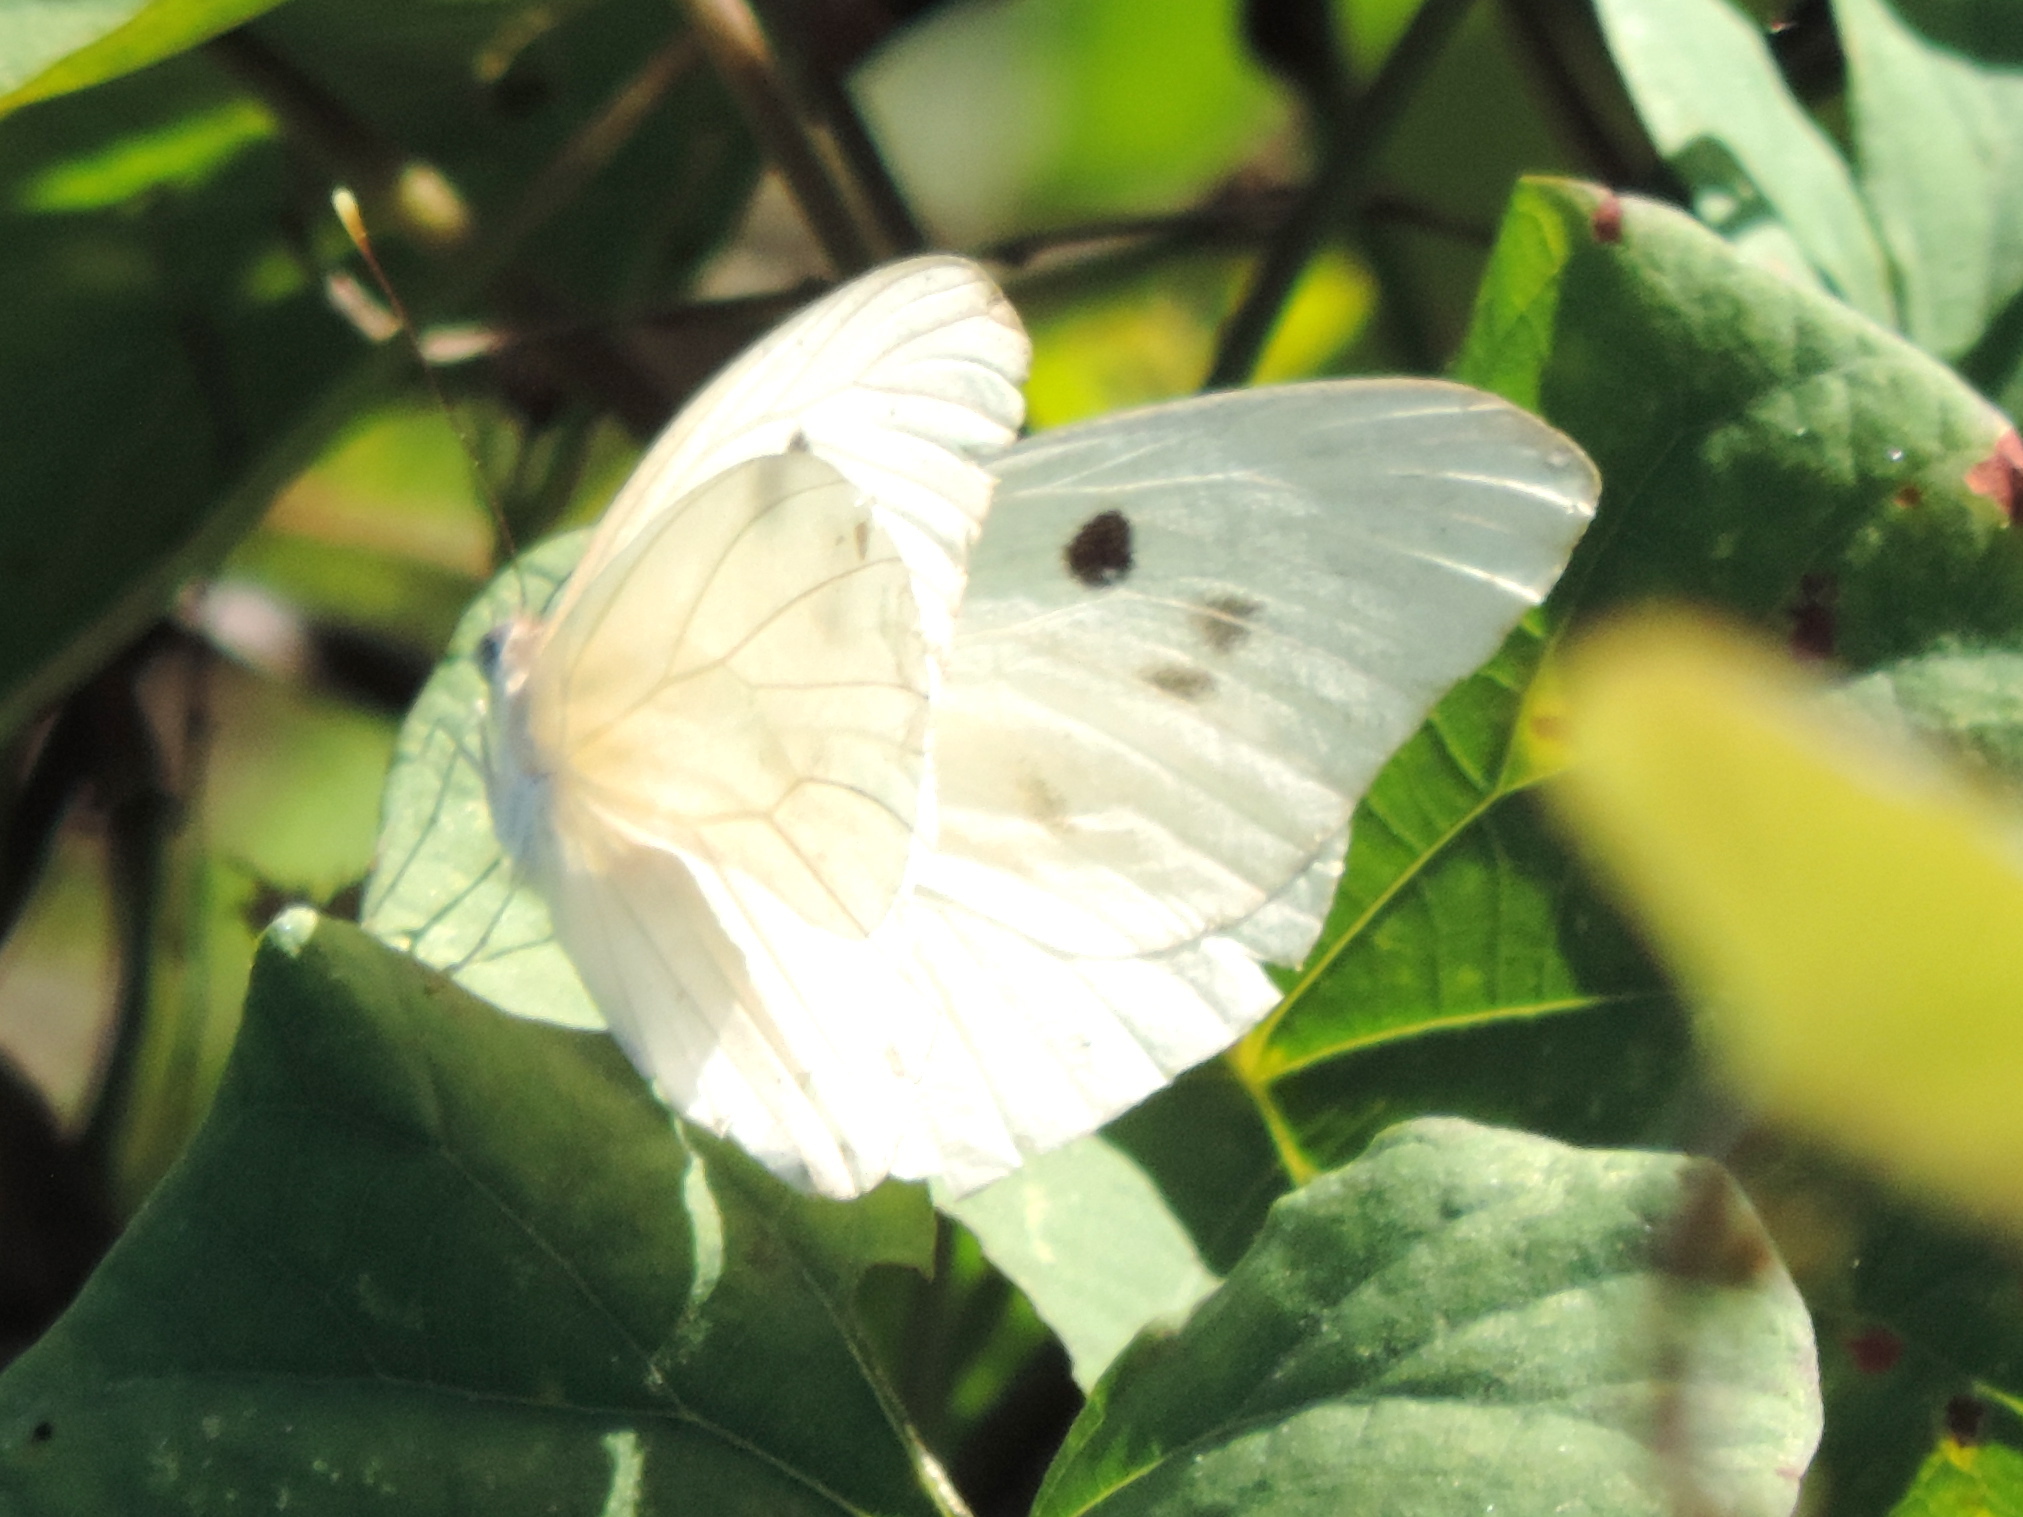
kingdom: Animalia
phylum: Arthropoda
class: Insecta
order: Lepidoptera
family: Pieridae
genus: Ganyra
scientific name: Ganyra josephina
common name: Giant white
